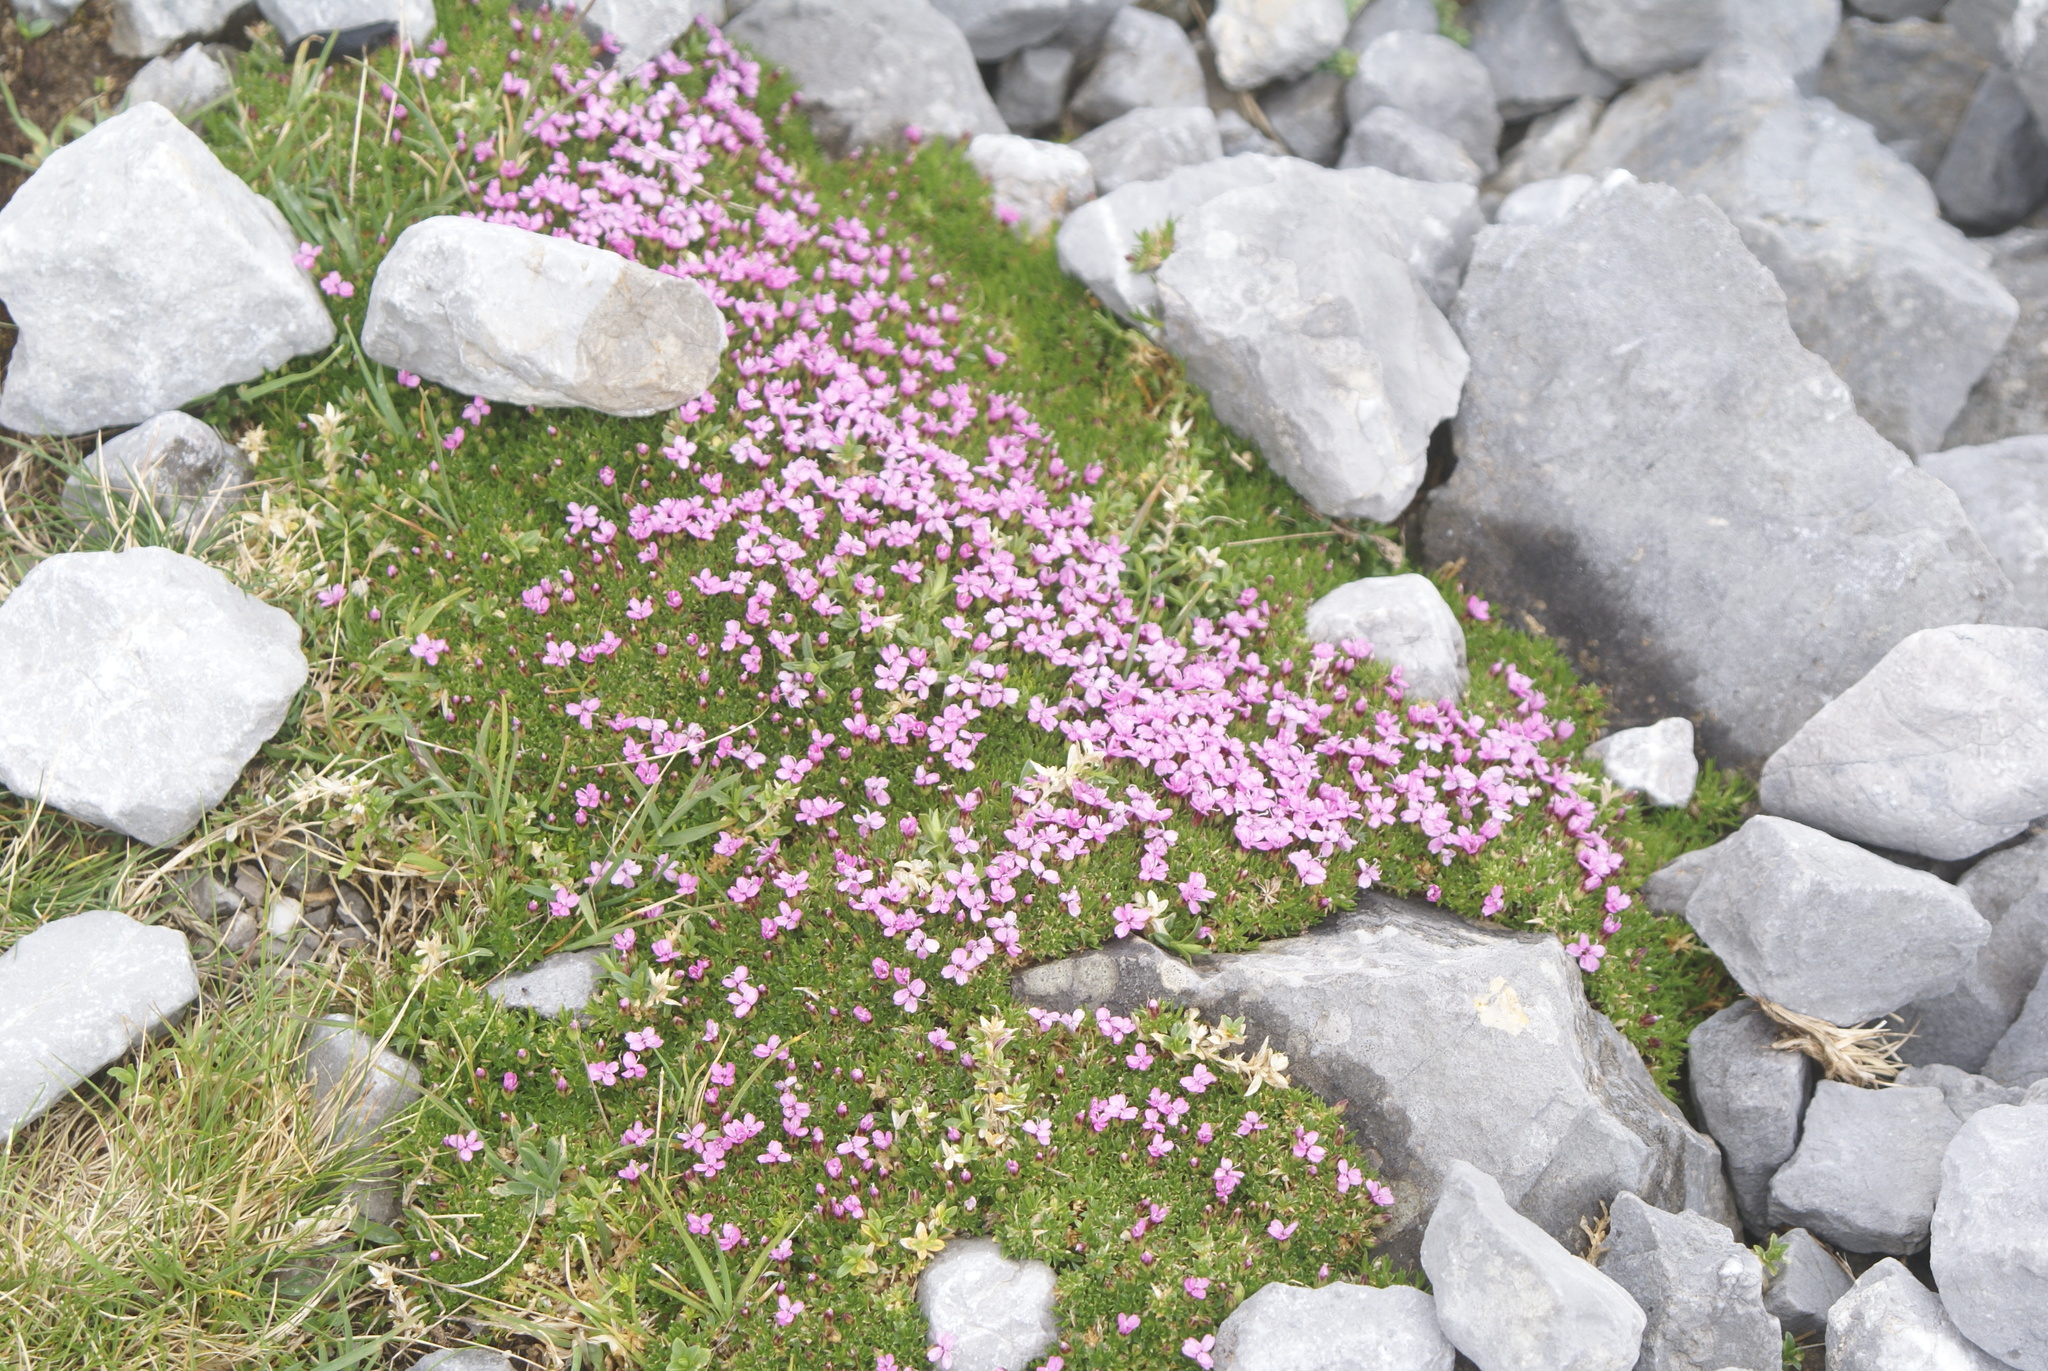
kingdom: Plantae
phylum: Tracheophyta
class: Magnoliopsida
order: Caryophyllales
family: Caryophyllaceae
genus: Silene
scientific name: Silene acaulis
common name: Moss campion
